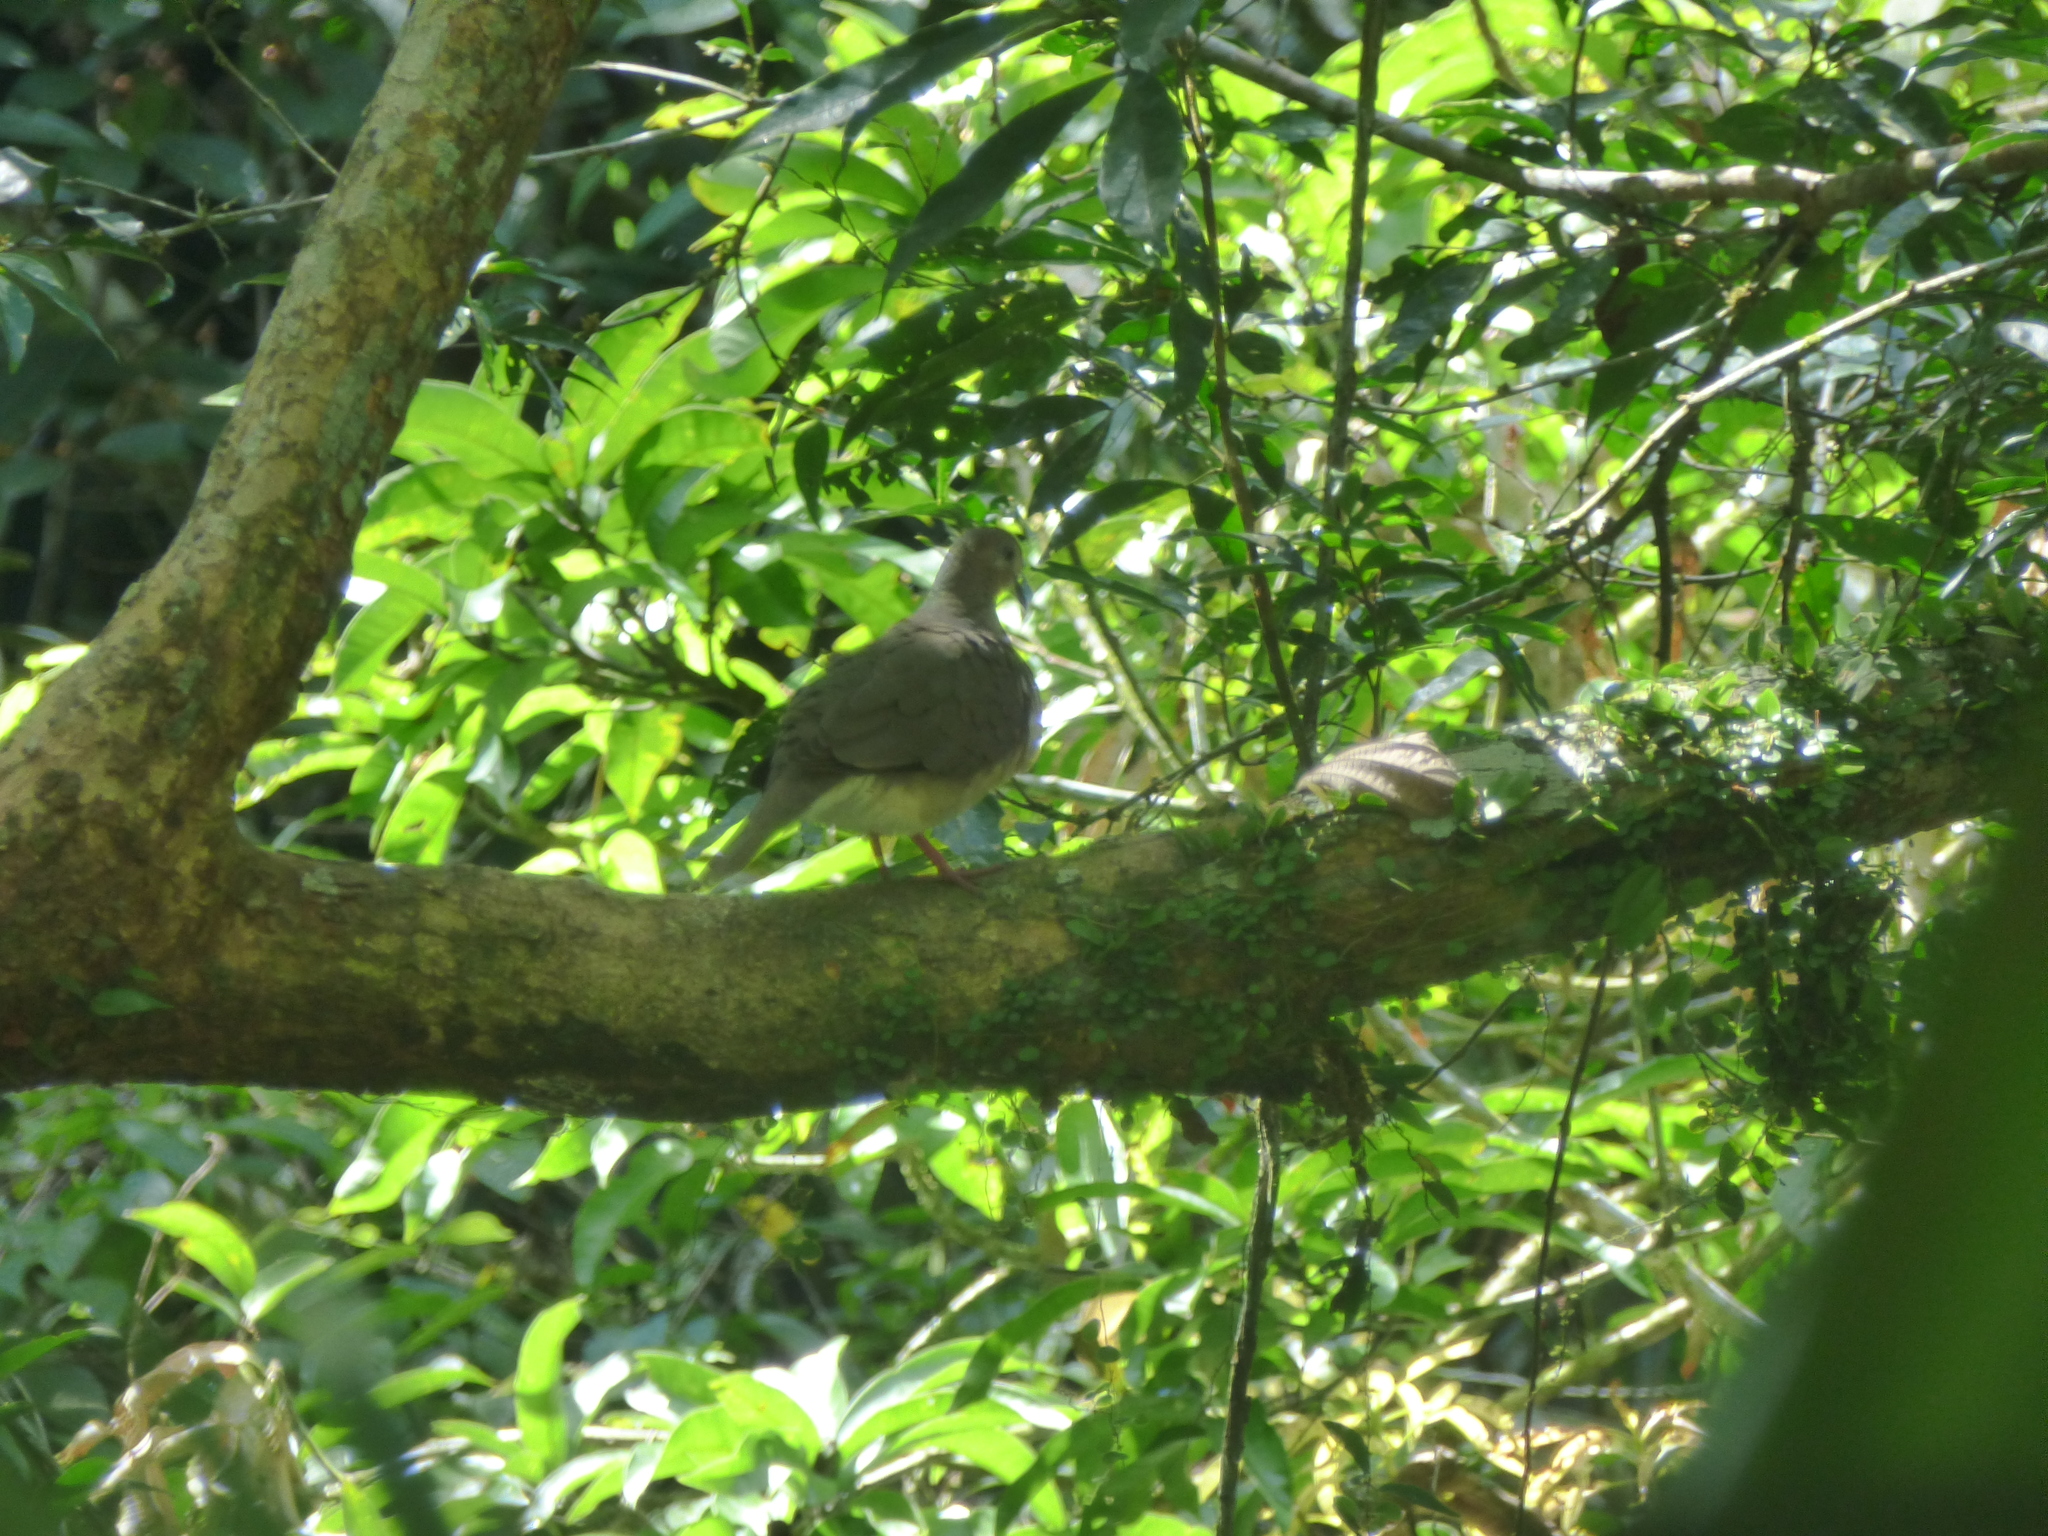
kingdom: Animalia
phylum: Chordata
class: Aves
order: Columbiformes
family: Columbidae
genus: Leptotila
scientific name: Leptotila verreauxi
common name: White-tipped dove
